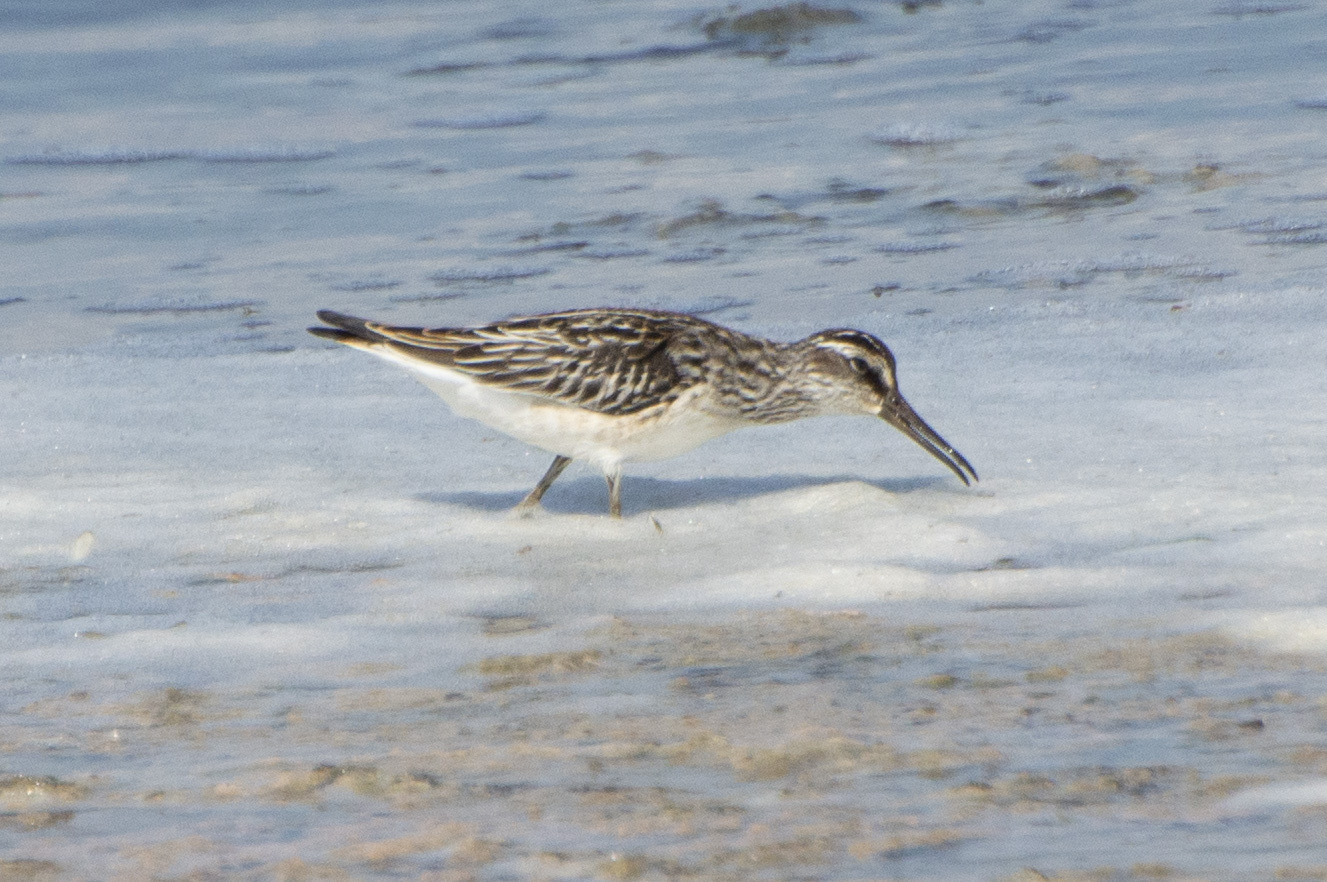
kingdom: Animalia
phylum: Chordata
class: Aves
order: Charadriiformes
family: Scolopacidae
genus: Calidris
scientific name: Calidris falcinellus
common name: Broad-billed sandpiper
